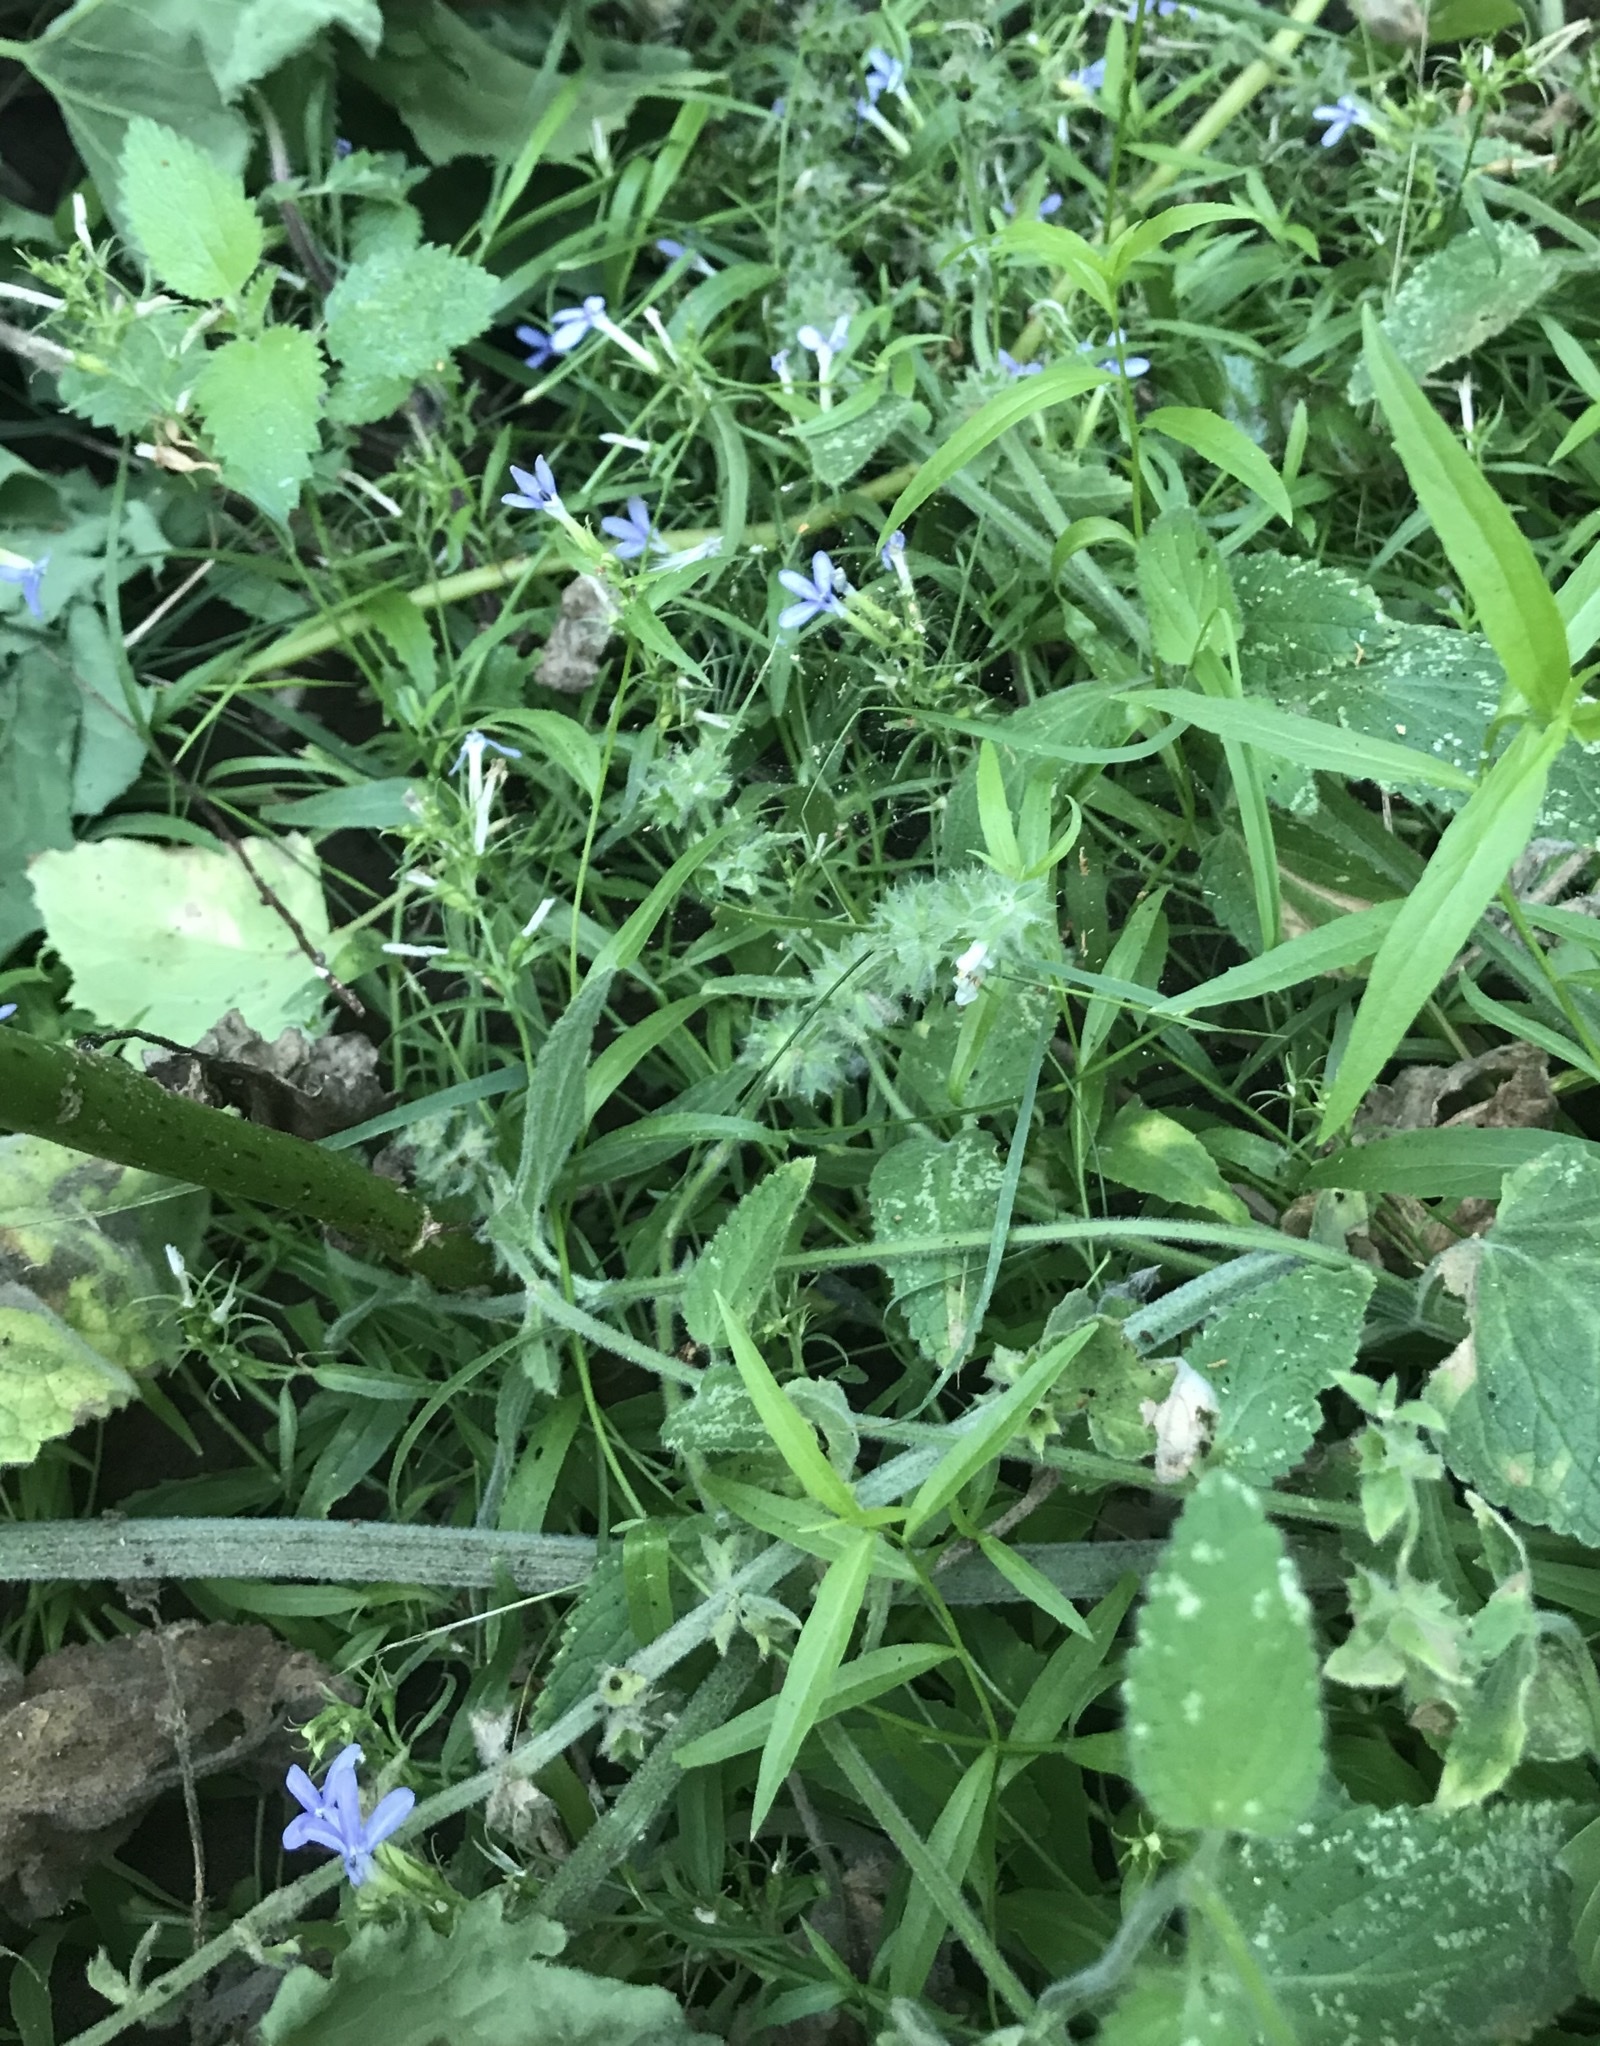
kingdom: Plantae
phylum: Tracheophyta
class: Magnoliopsida
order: Asterales
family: Campanulaceae
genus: Palmerella
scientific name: Palmerella debilis
